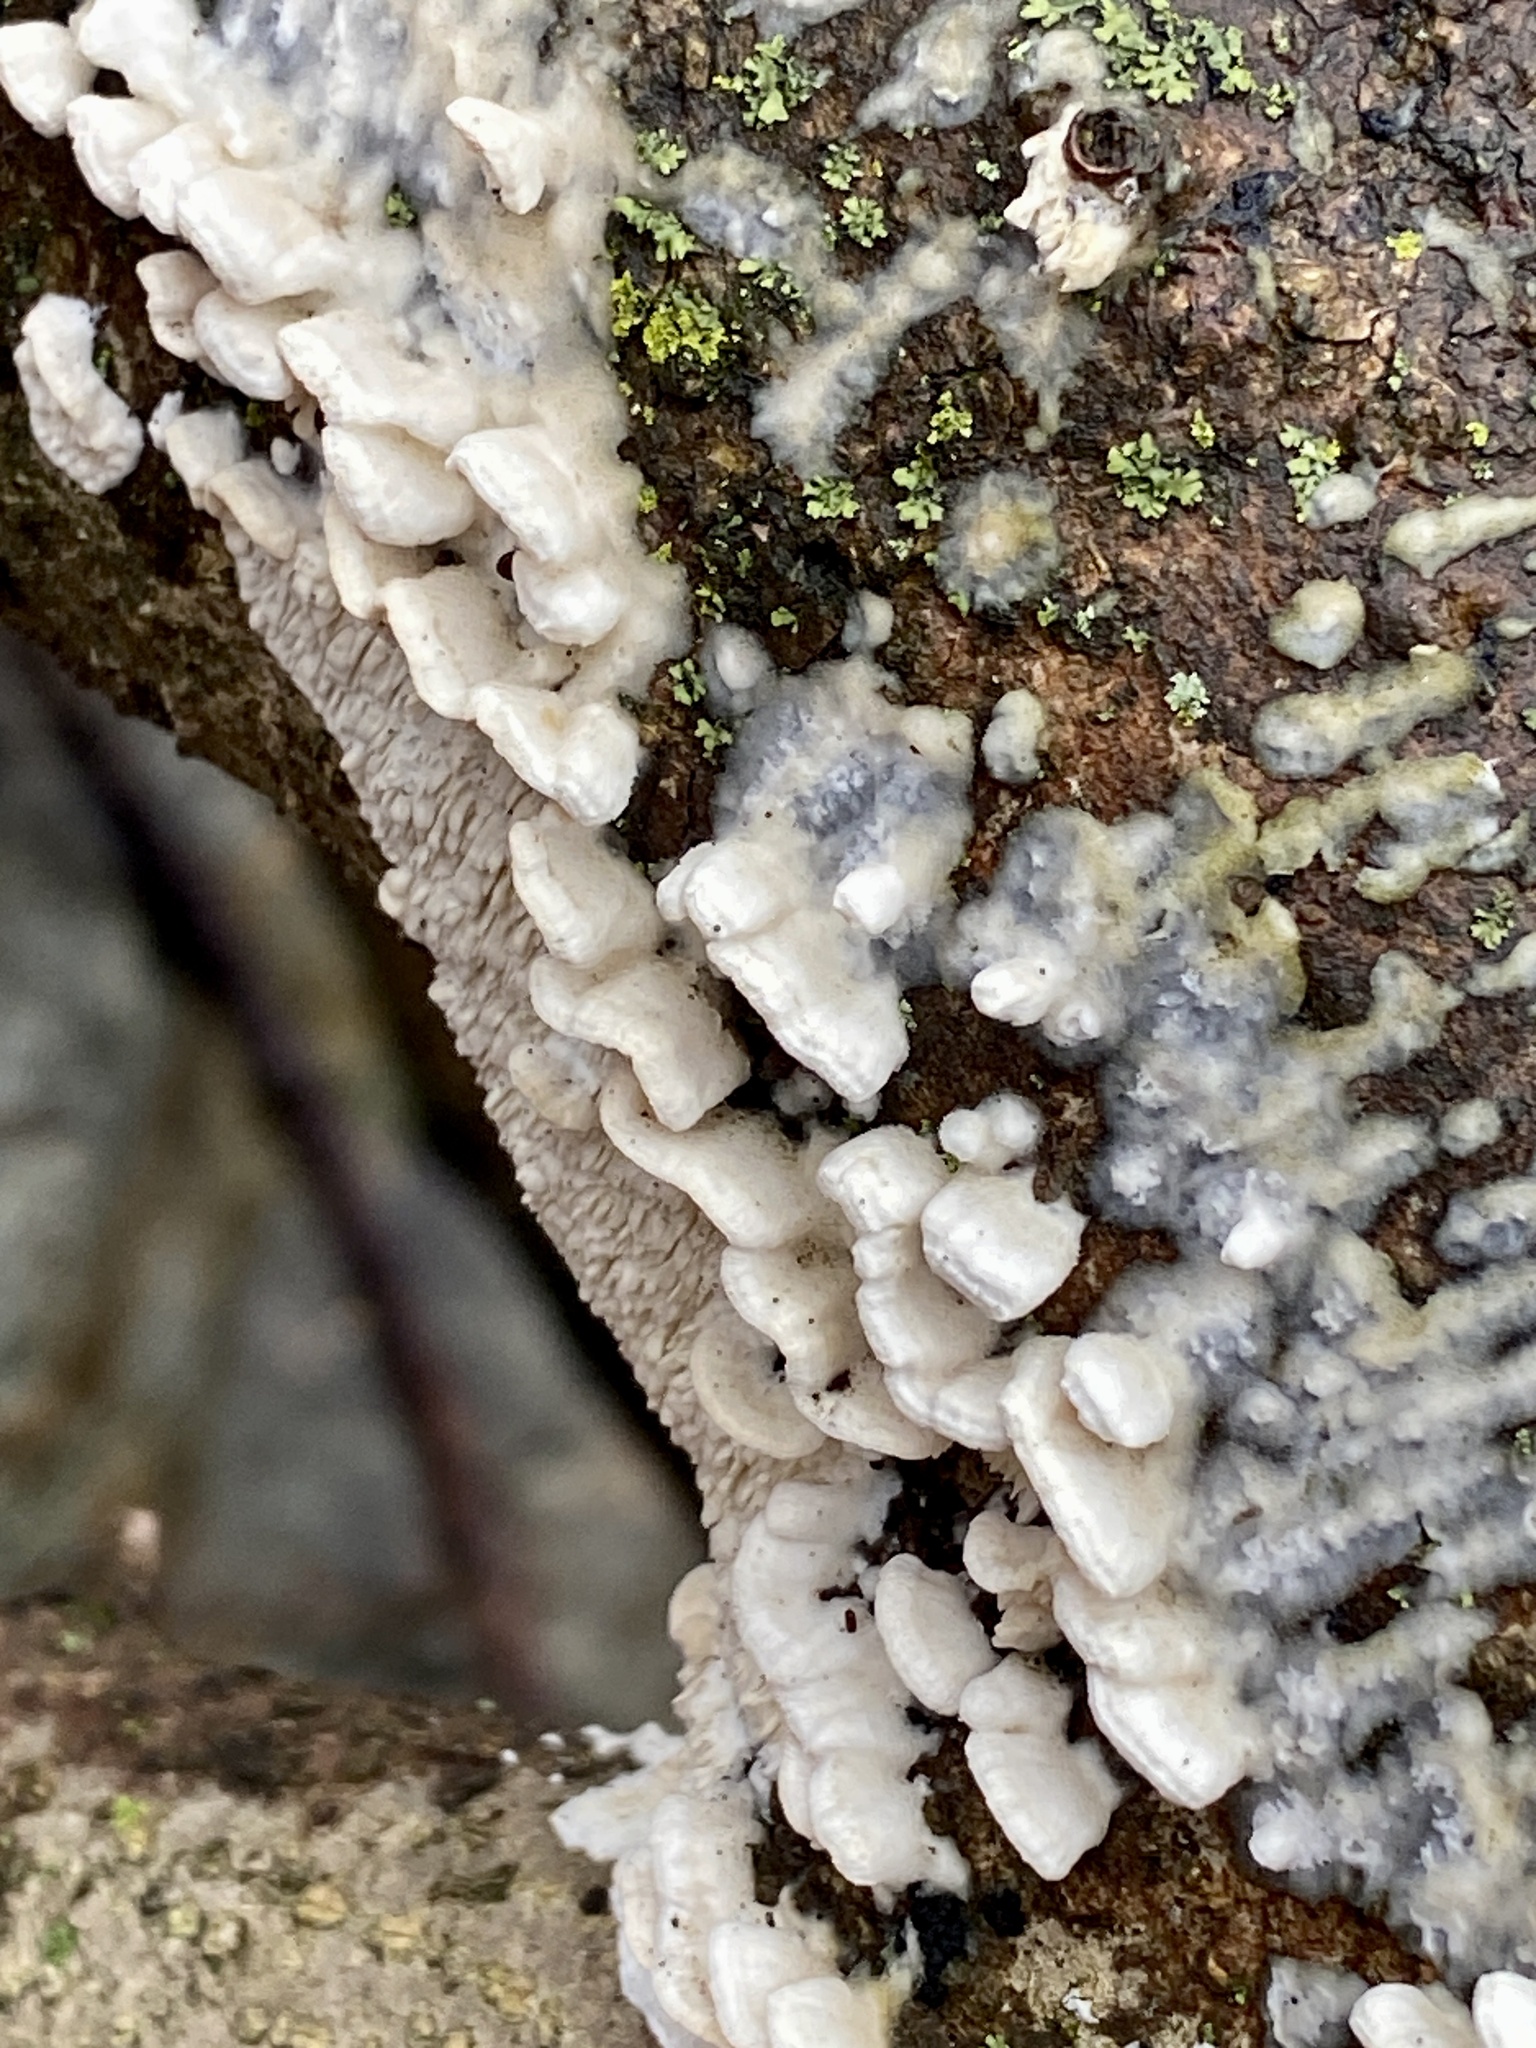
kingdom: Fungi
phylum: Basidiomycota
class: Agaricomycetes
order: Polyporales
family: Irpicaceae
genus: Irpex
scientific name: Irpex lacteus
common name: Milk-white toothed polypore
